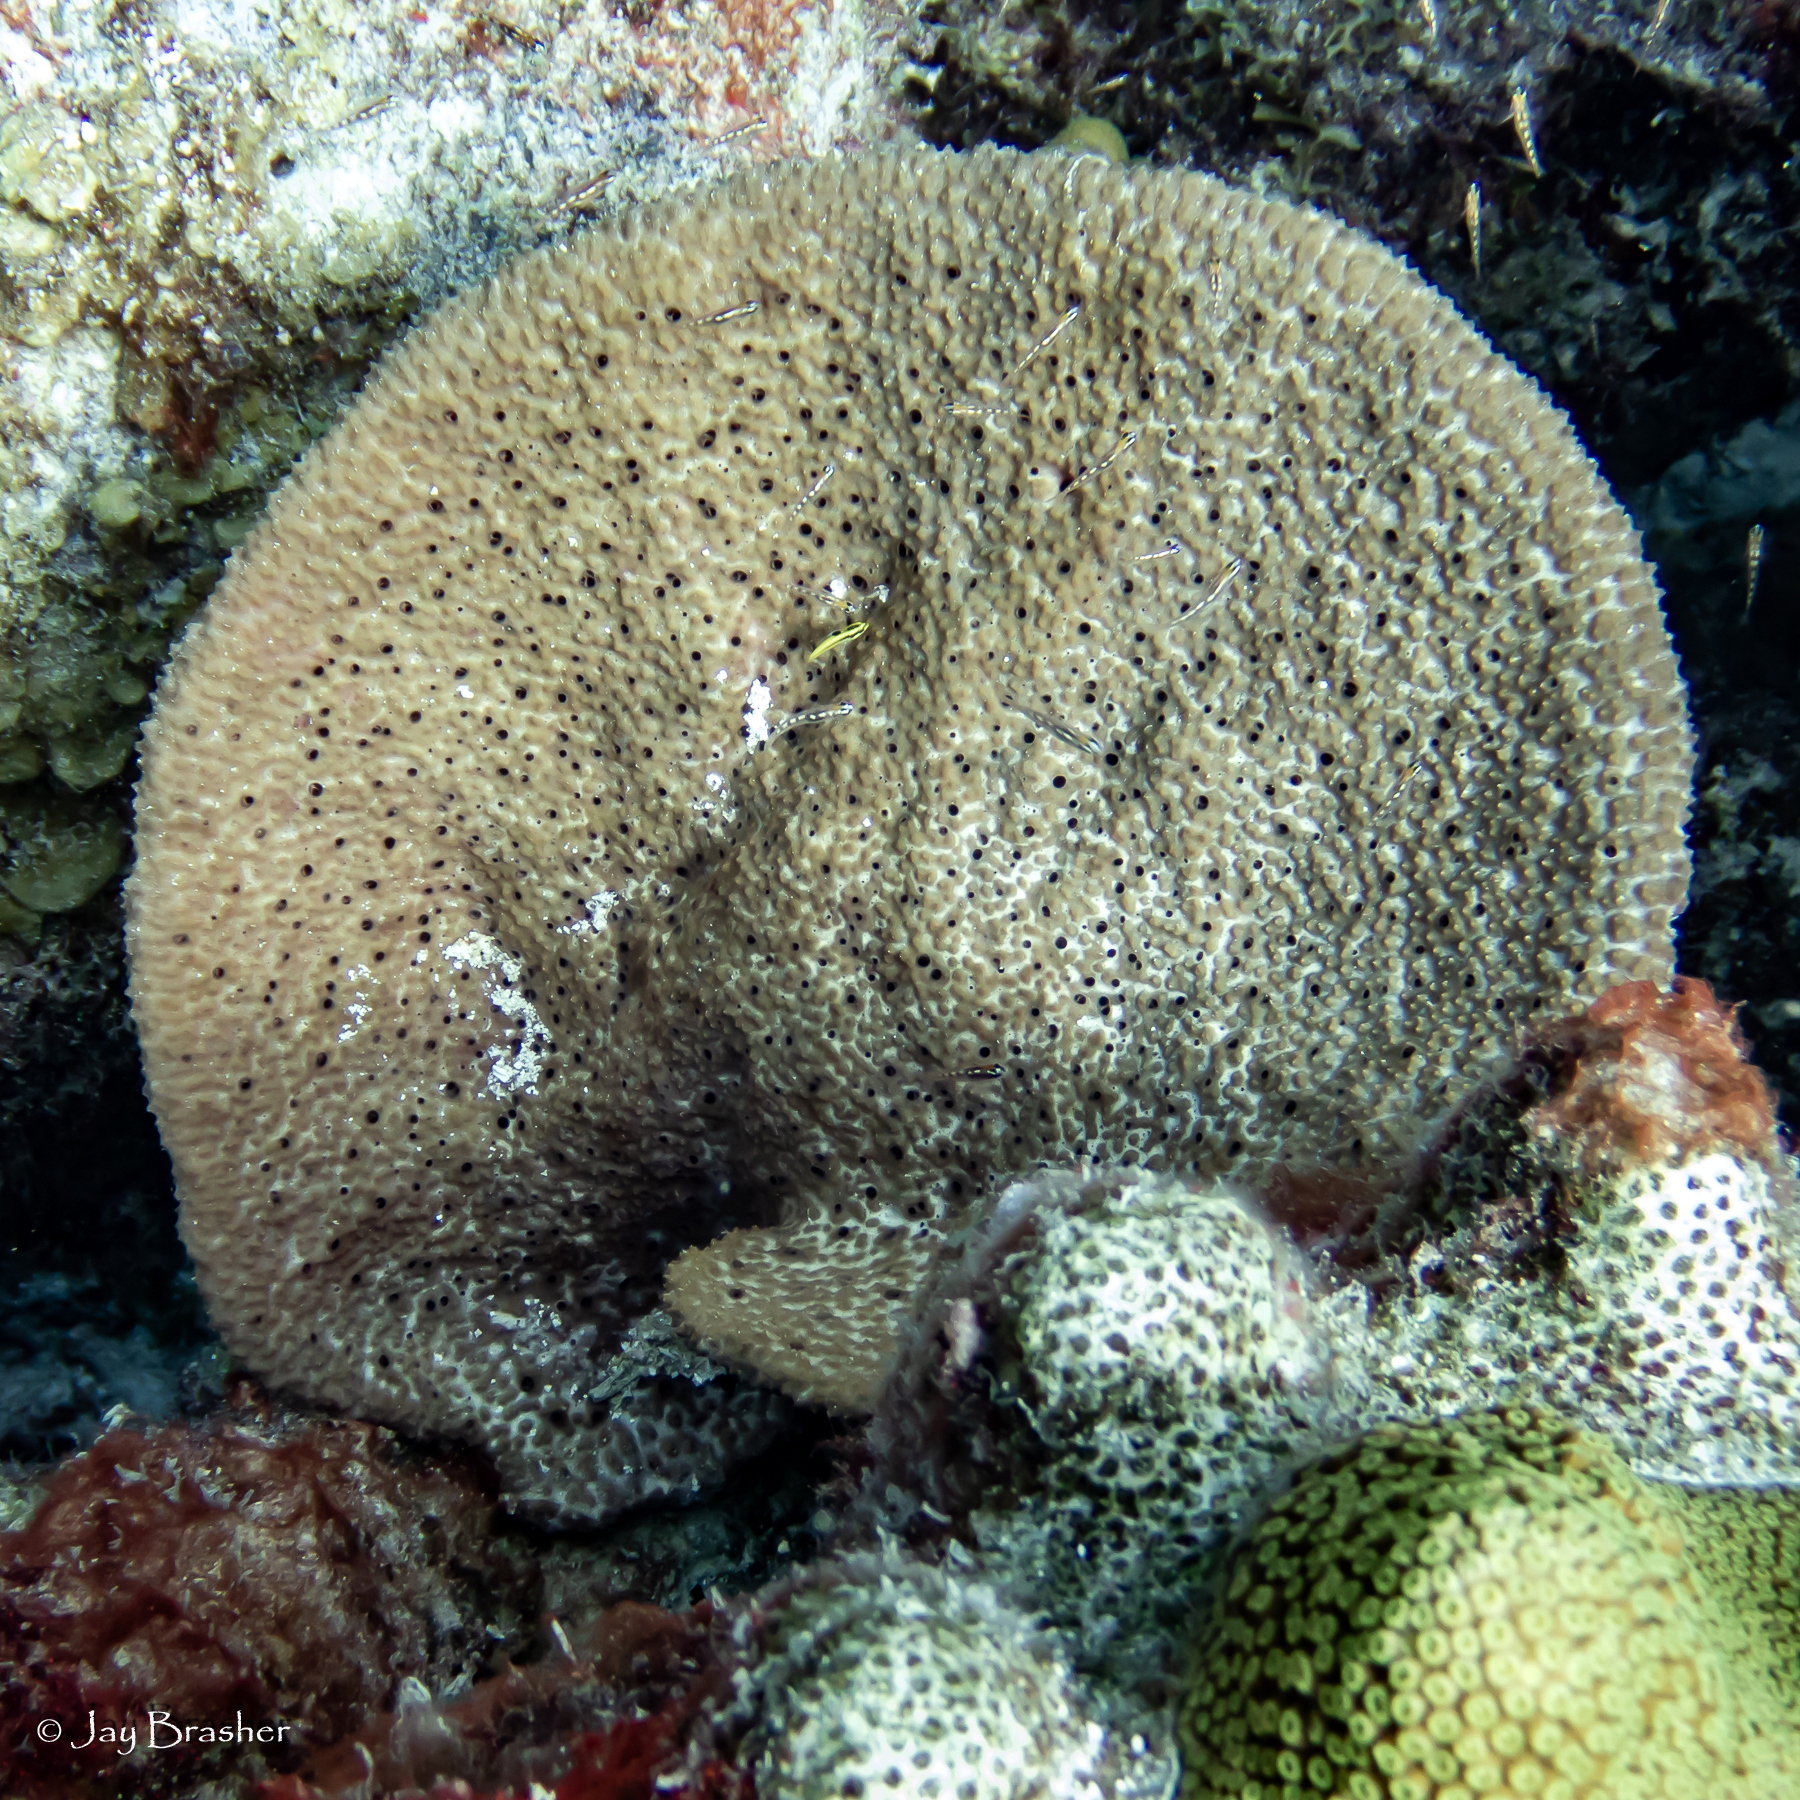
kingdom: Animalia
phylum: Porifera
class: Demospongiae
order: Dictyoceratida
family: Irciniidae
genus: Ircinia
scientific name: Ircinia campana
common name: Vase sponge
